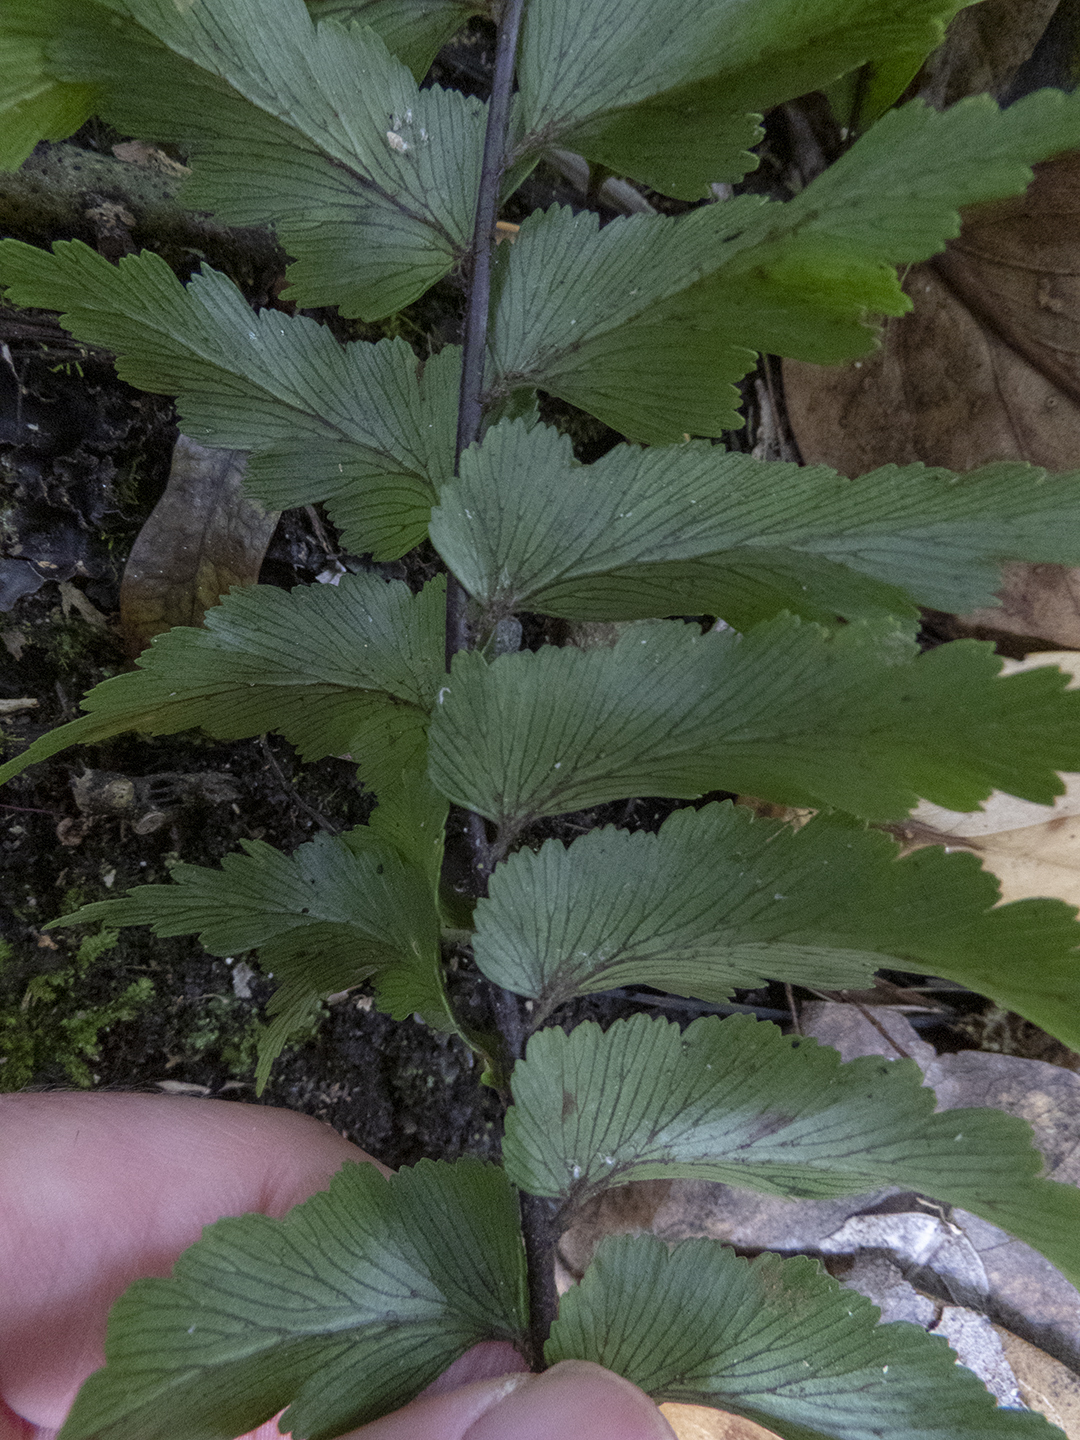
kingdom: Plantae
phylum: Tracheophyta
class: Polypodiopsida
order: Polypodiales
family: Aspleniaceae
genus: Asplenium
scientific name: Asplenium polyodon
